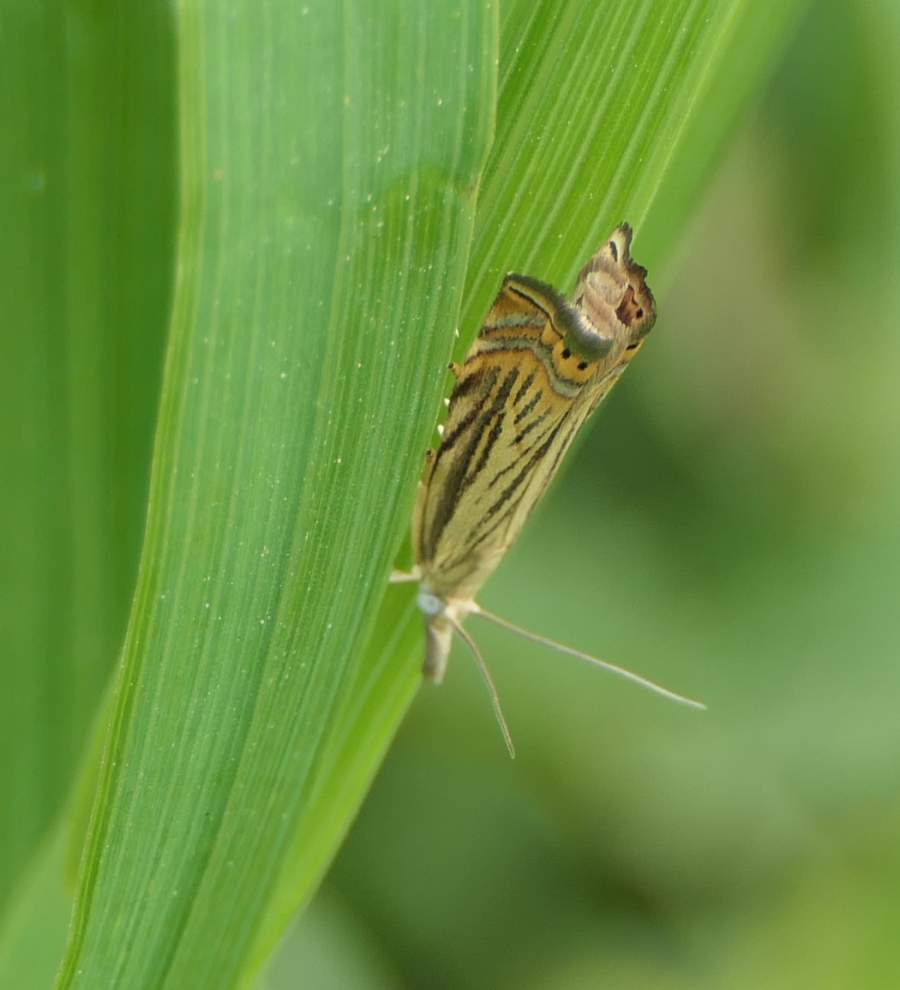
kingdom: Animalia
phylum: Arthropoda
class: Insecta
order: Lepidoptera
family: Crambidae
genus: Chrysoteuchia
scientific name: Chrysoteuchia topiarius
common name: Topiary grass-veneer
